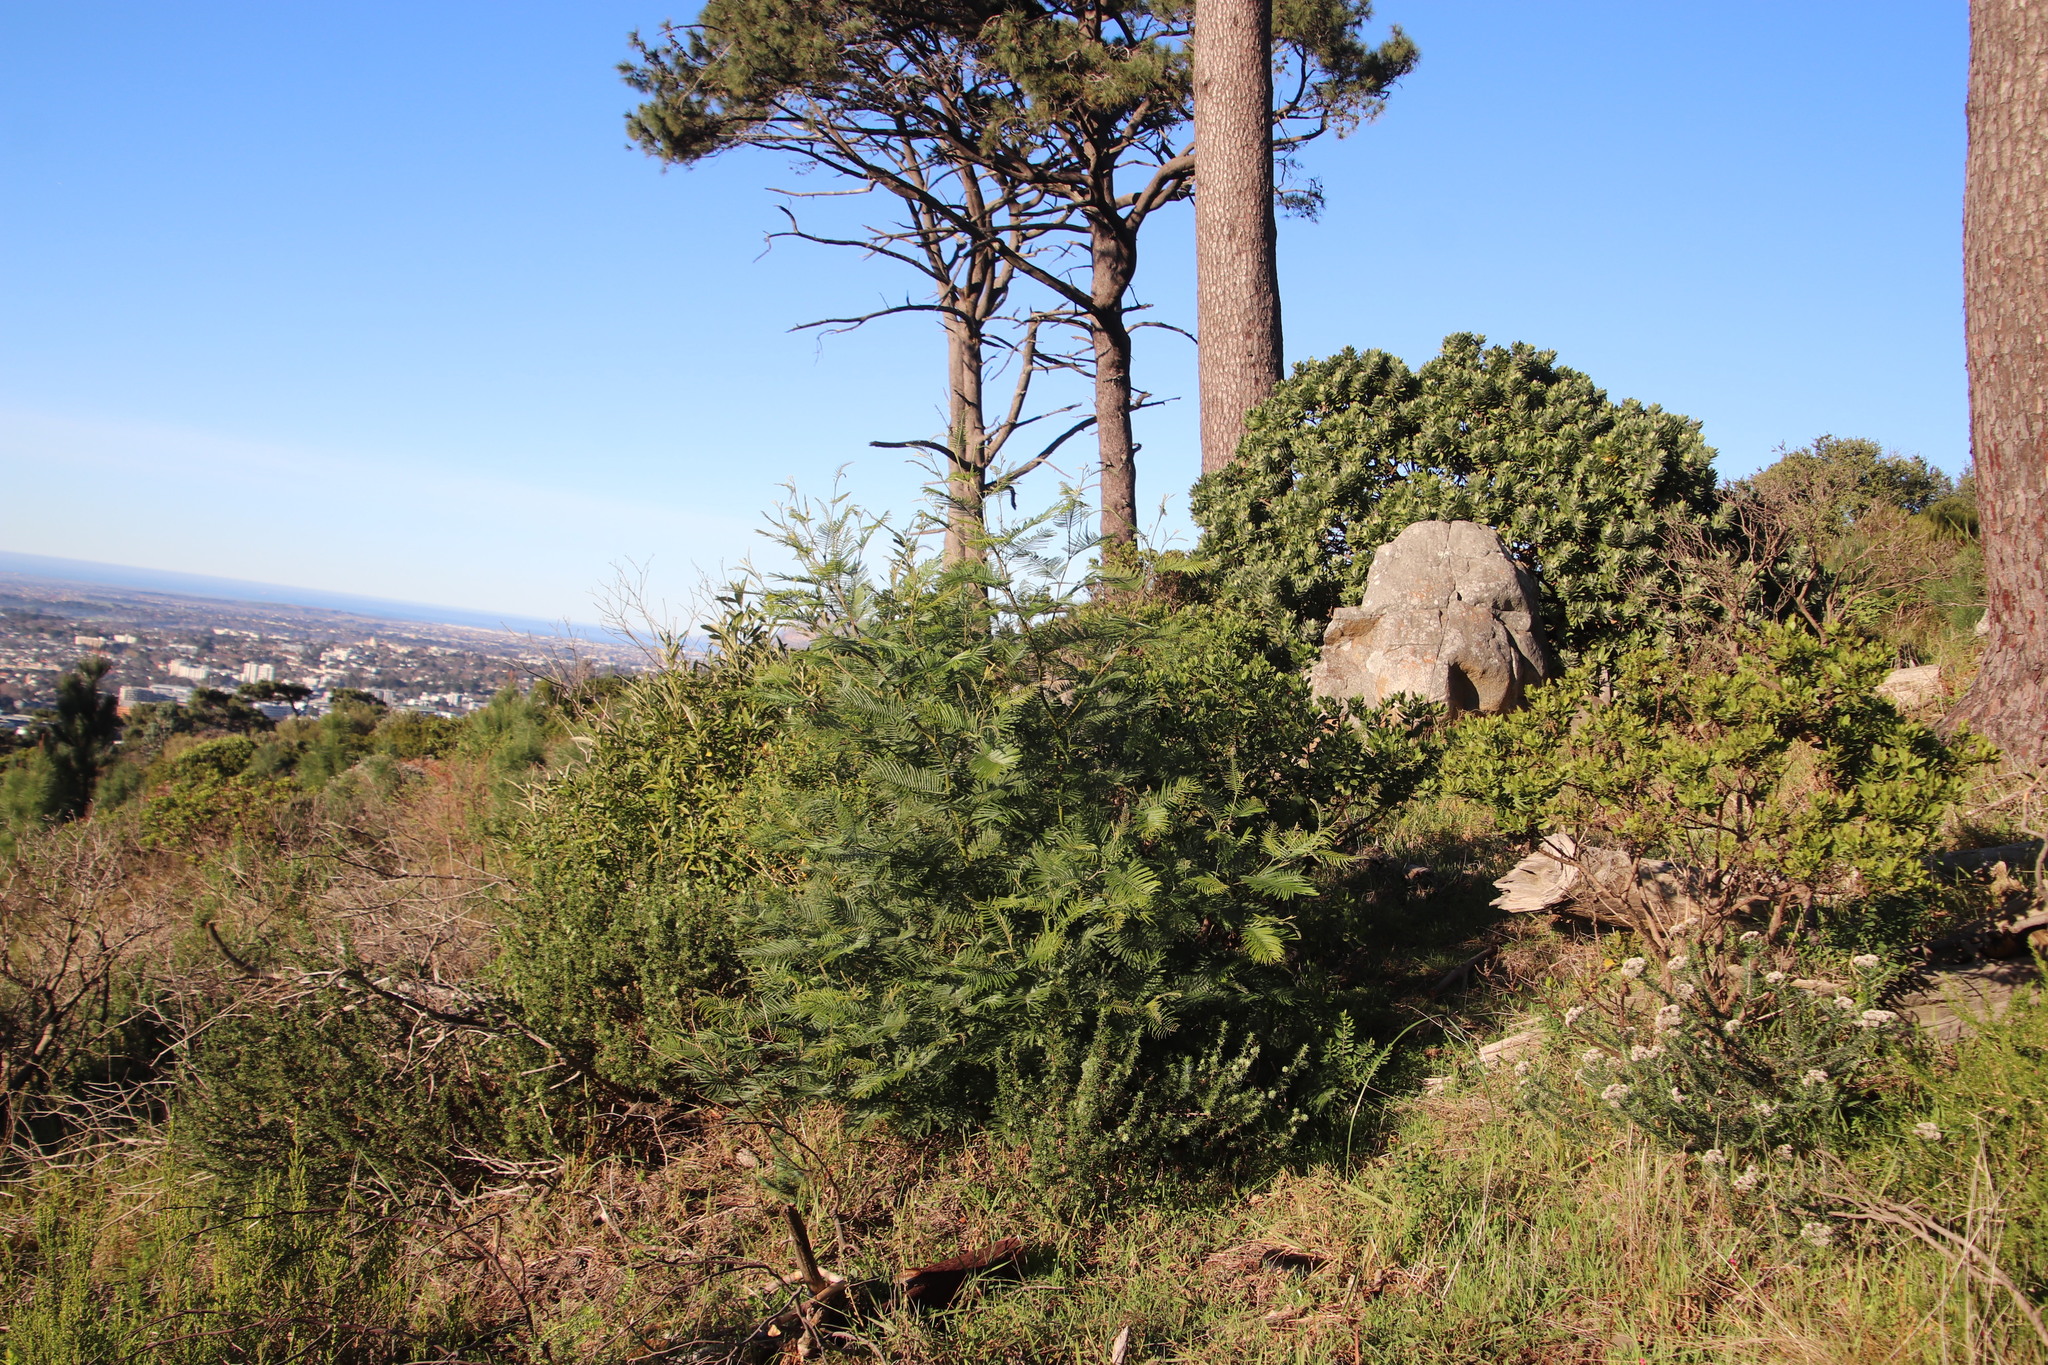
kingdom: Plantae
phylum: Tracheophyta
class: Magnoliopsida
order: Fabales
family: Fabaceae
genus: Acacia
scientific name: Acacia mearnsii
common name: Black wattle
